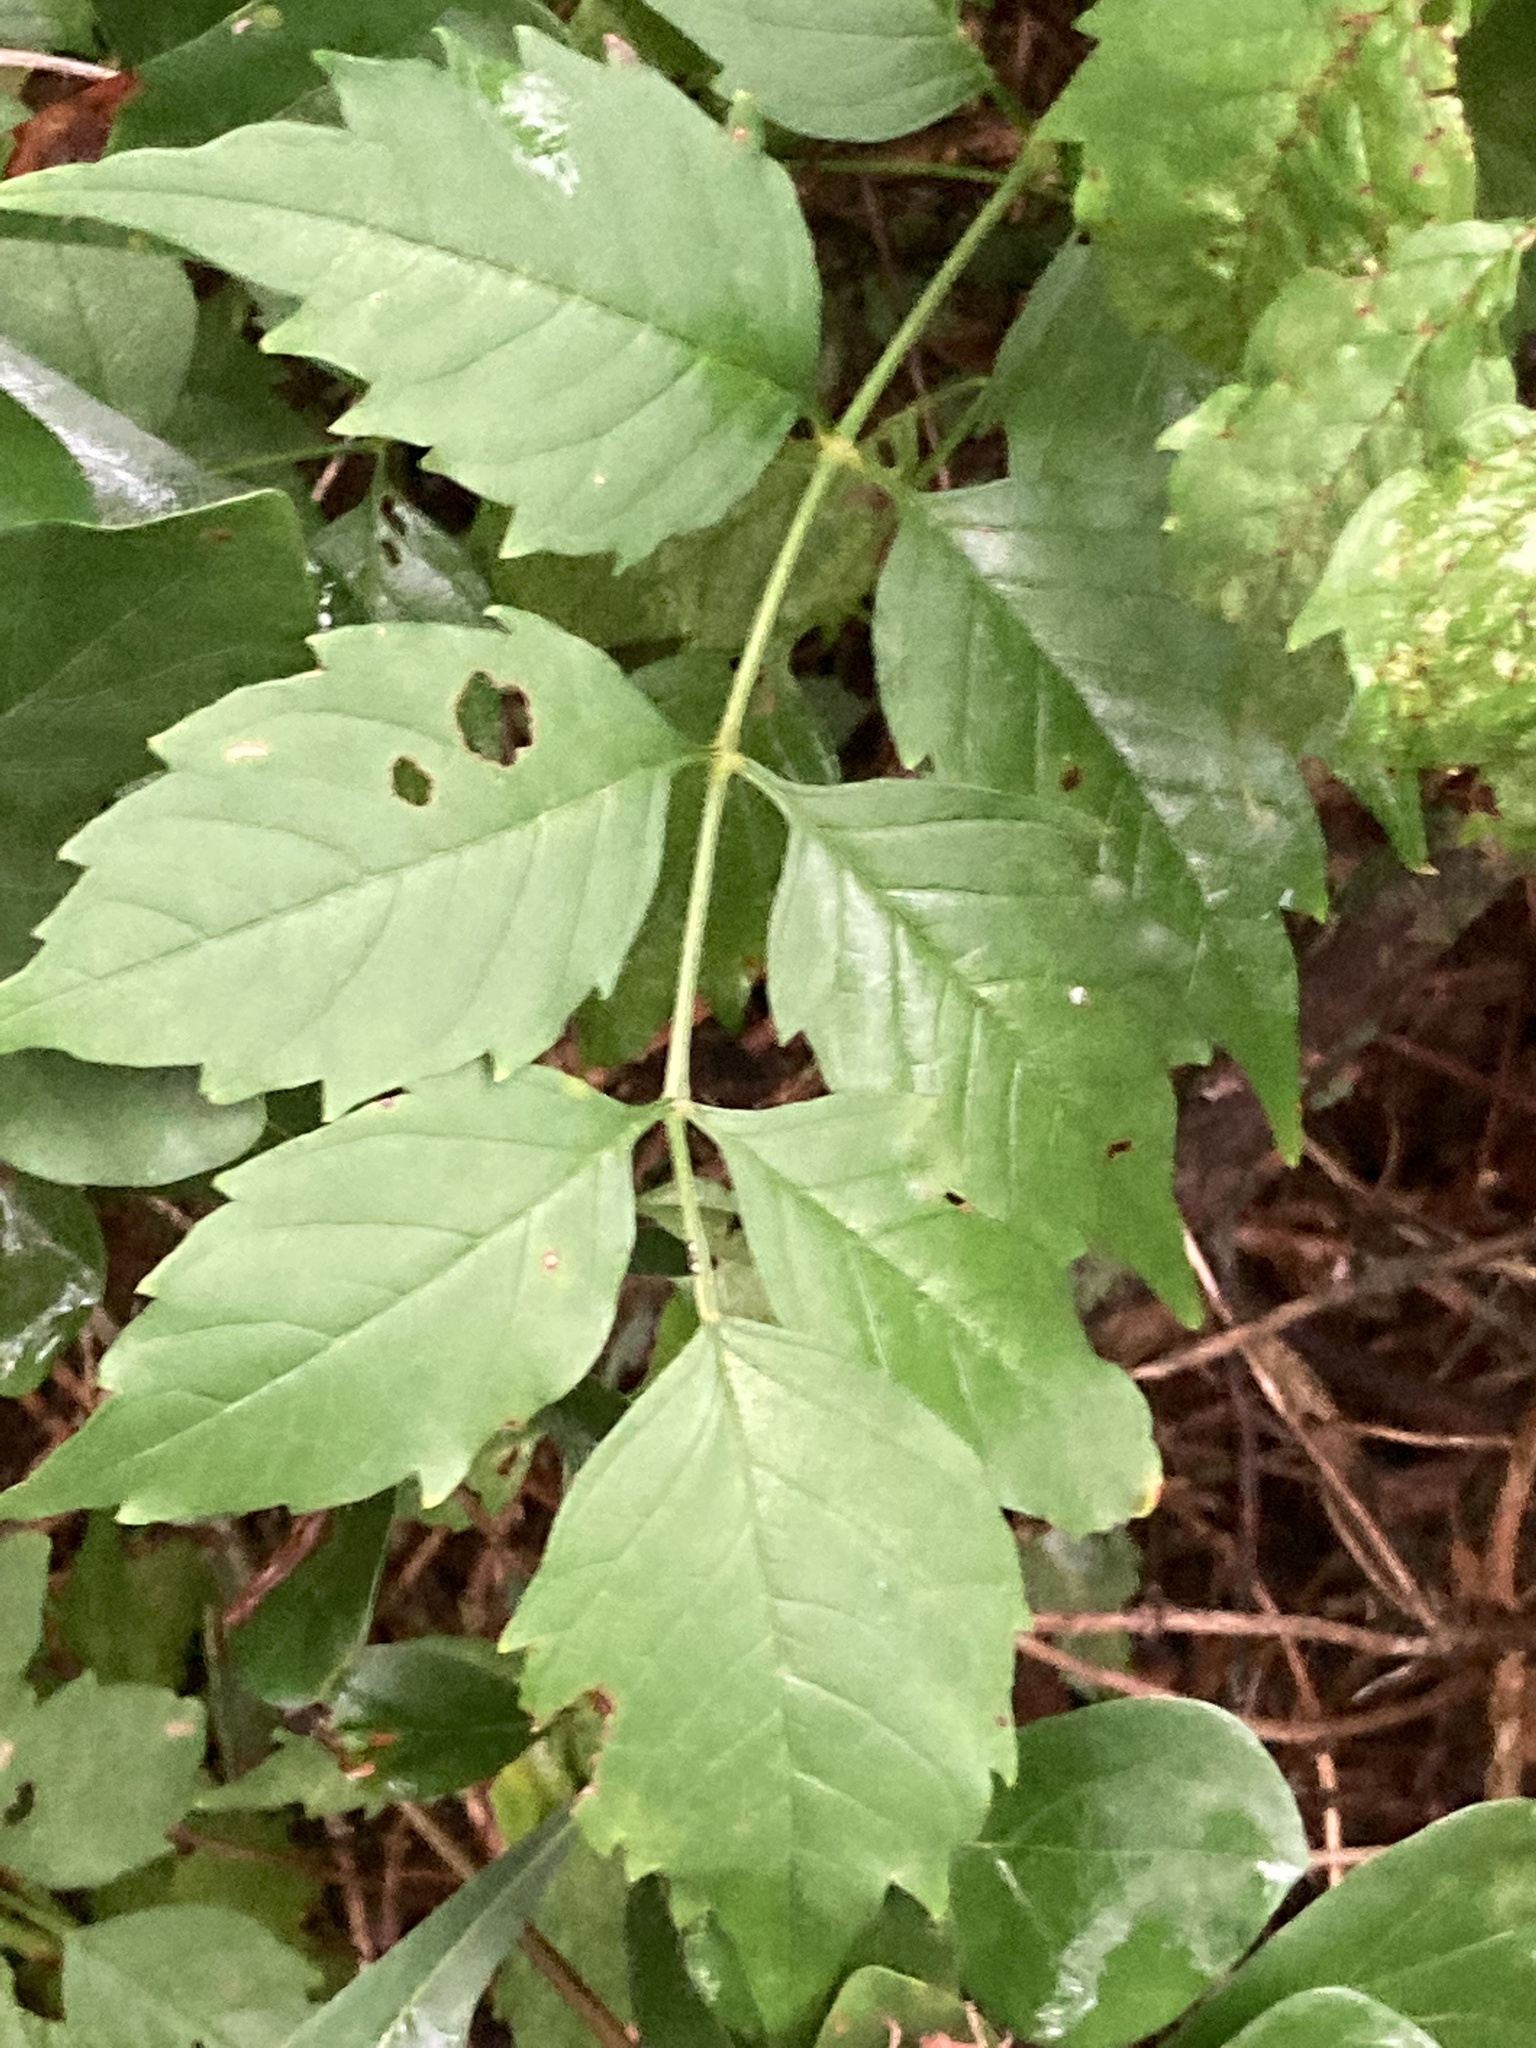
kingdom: Plantae
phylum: Tracheophyta
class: Magnoliopsida
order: Lamiales
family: Bignoniaceae
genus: Campsis
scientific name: Campsis radicans
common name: Trumpet-creeper
